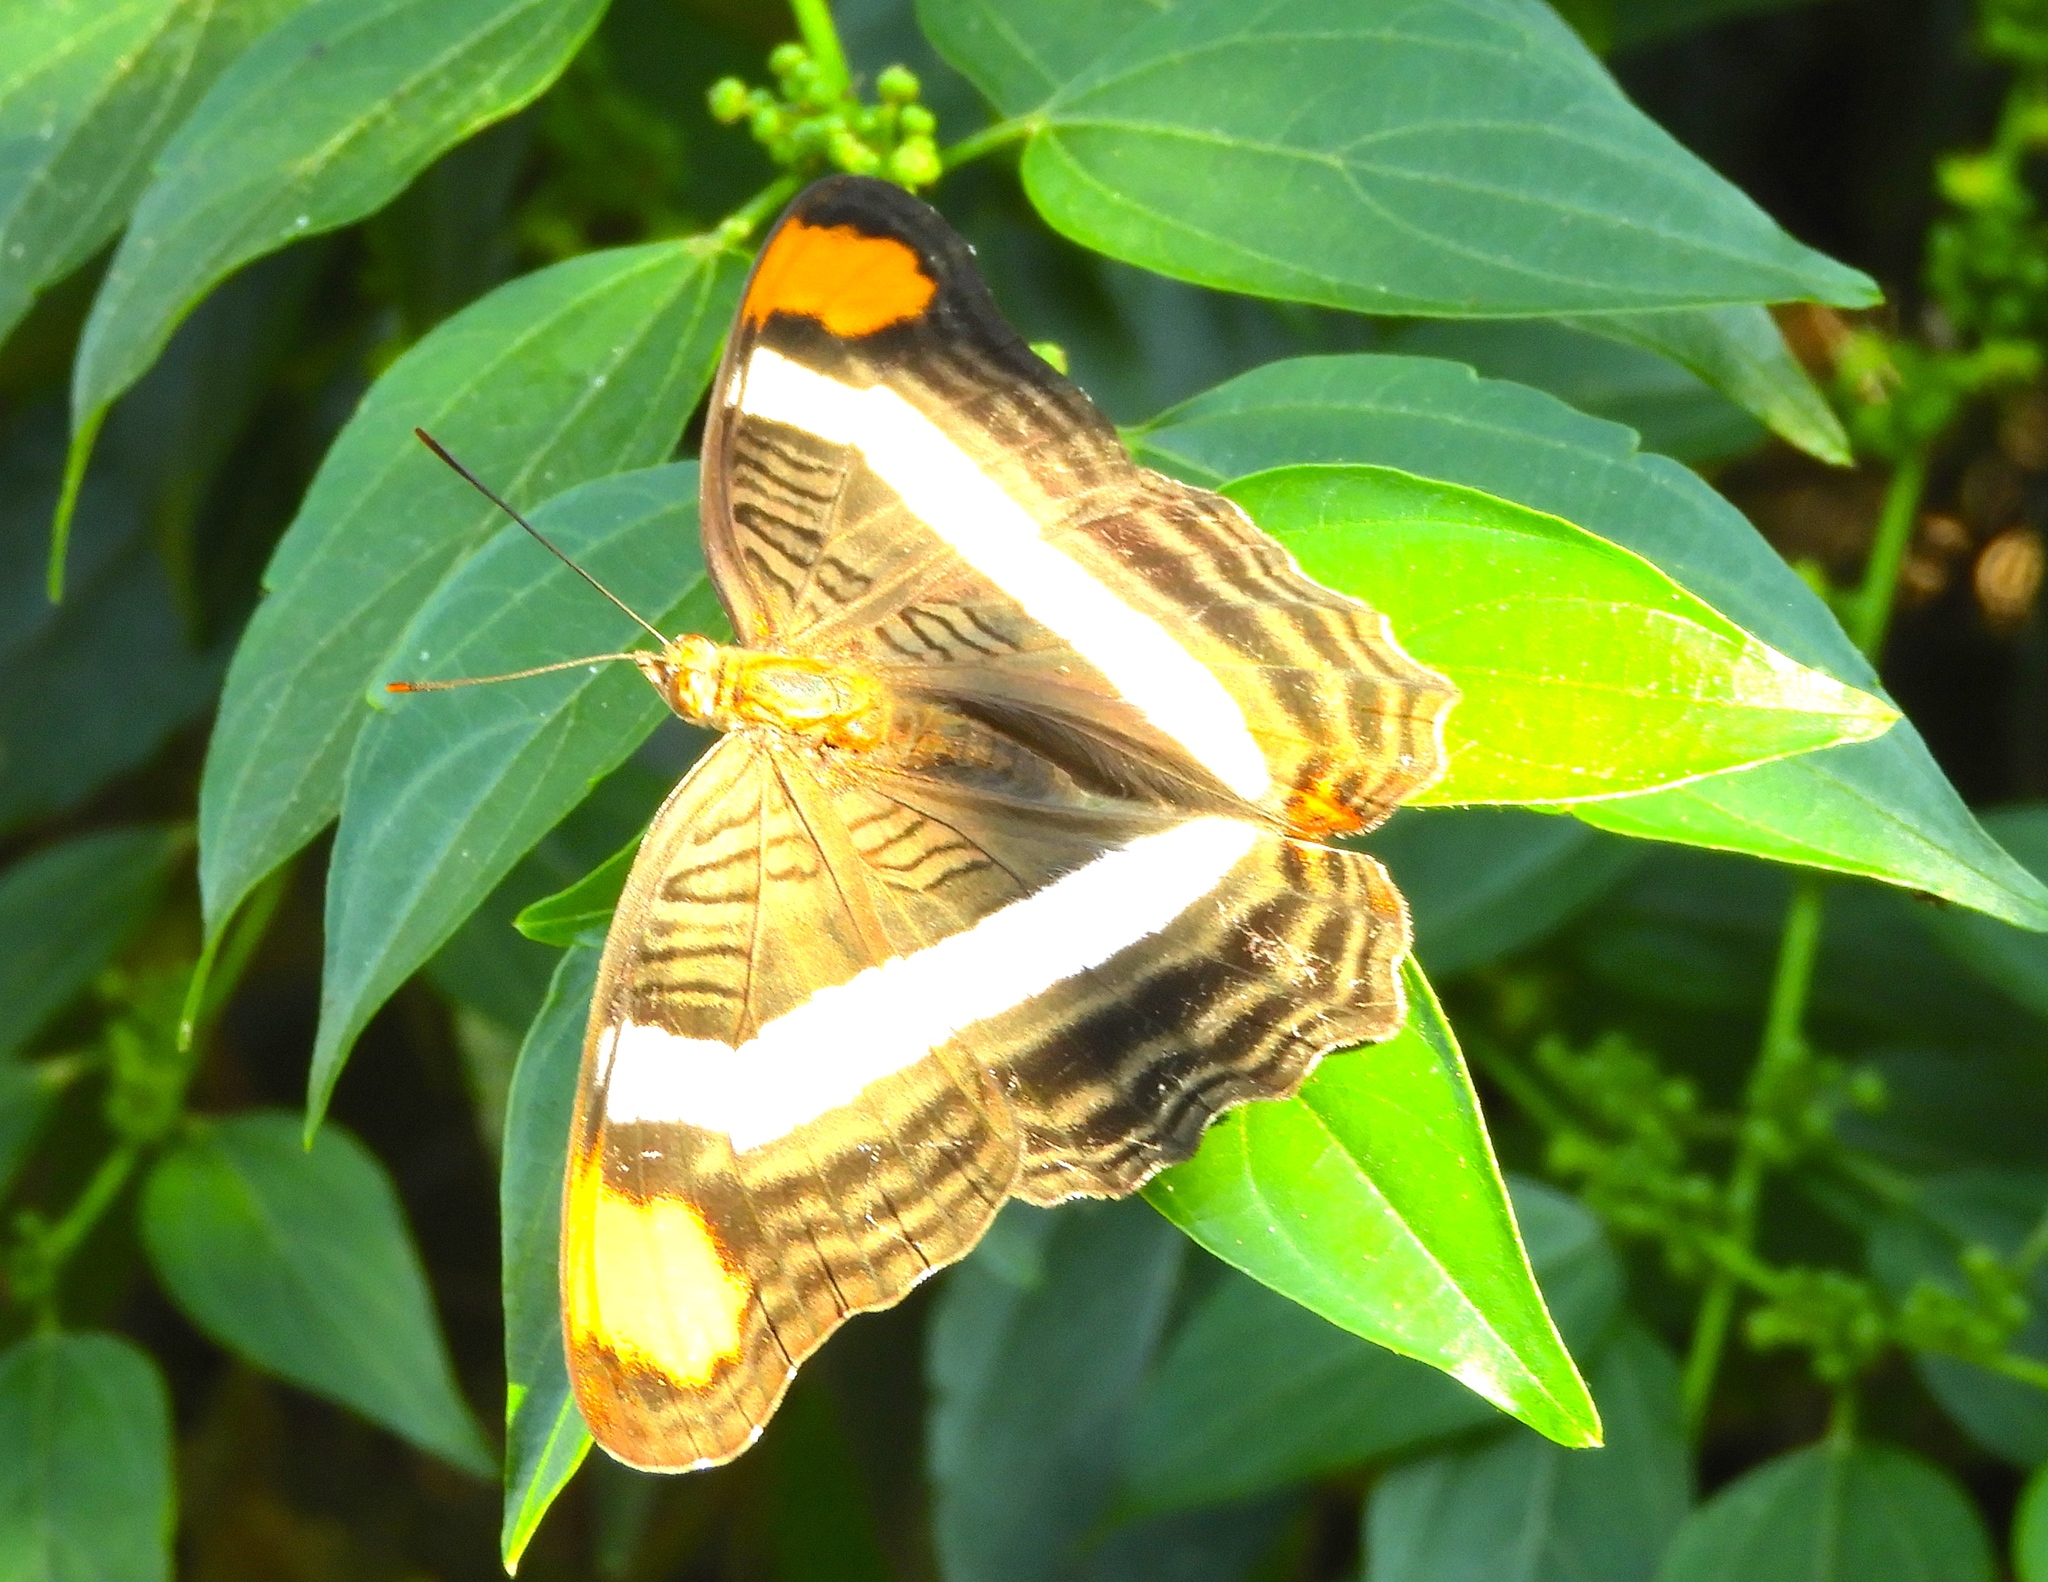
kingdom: Animalia
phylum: Arthropoda
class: Insecta
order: Lepidoptera
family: Nymphalidae
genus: Limenitis
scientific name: Limenitis fessonia
